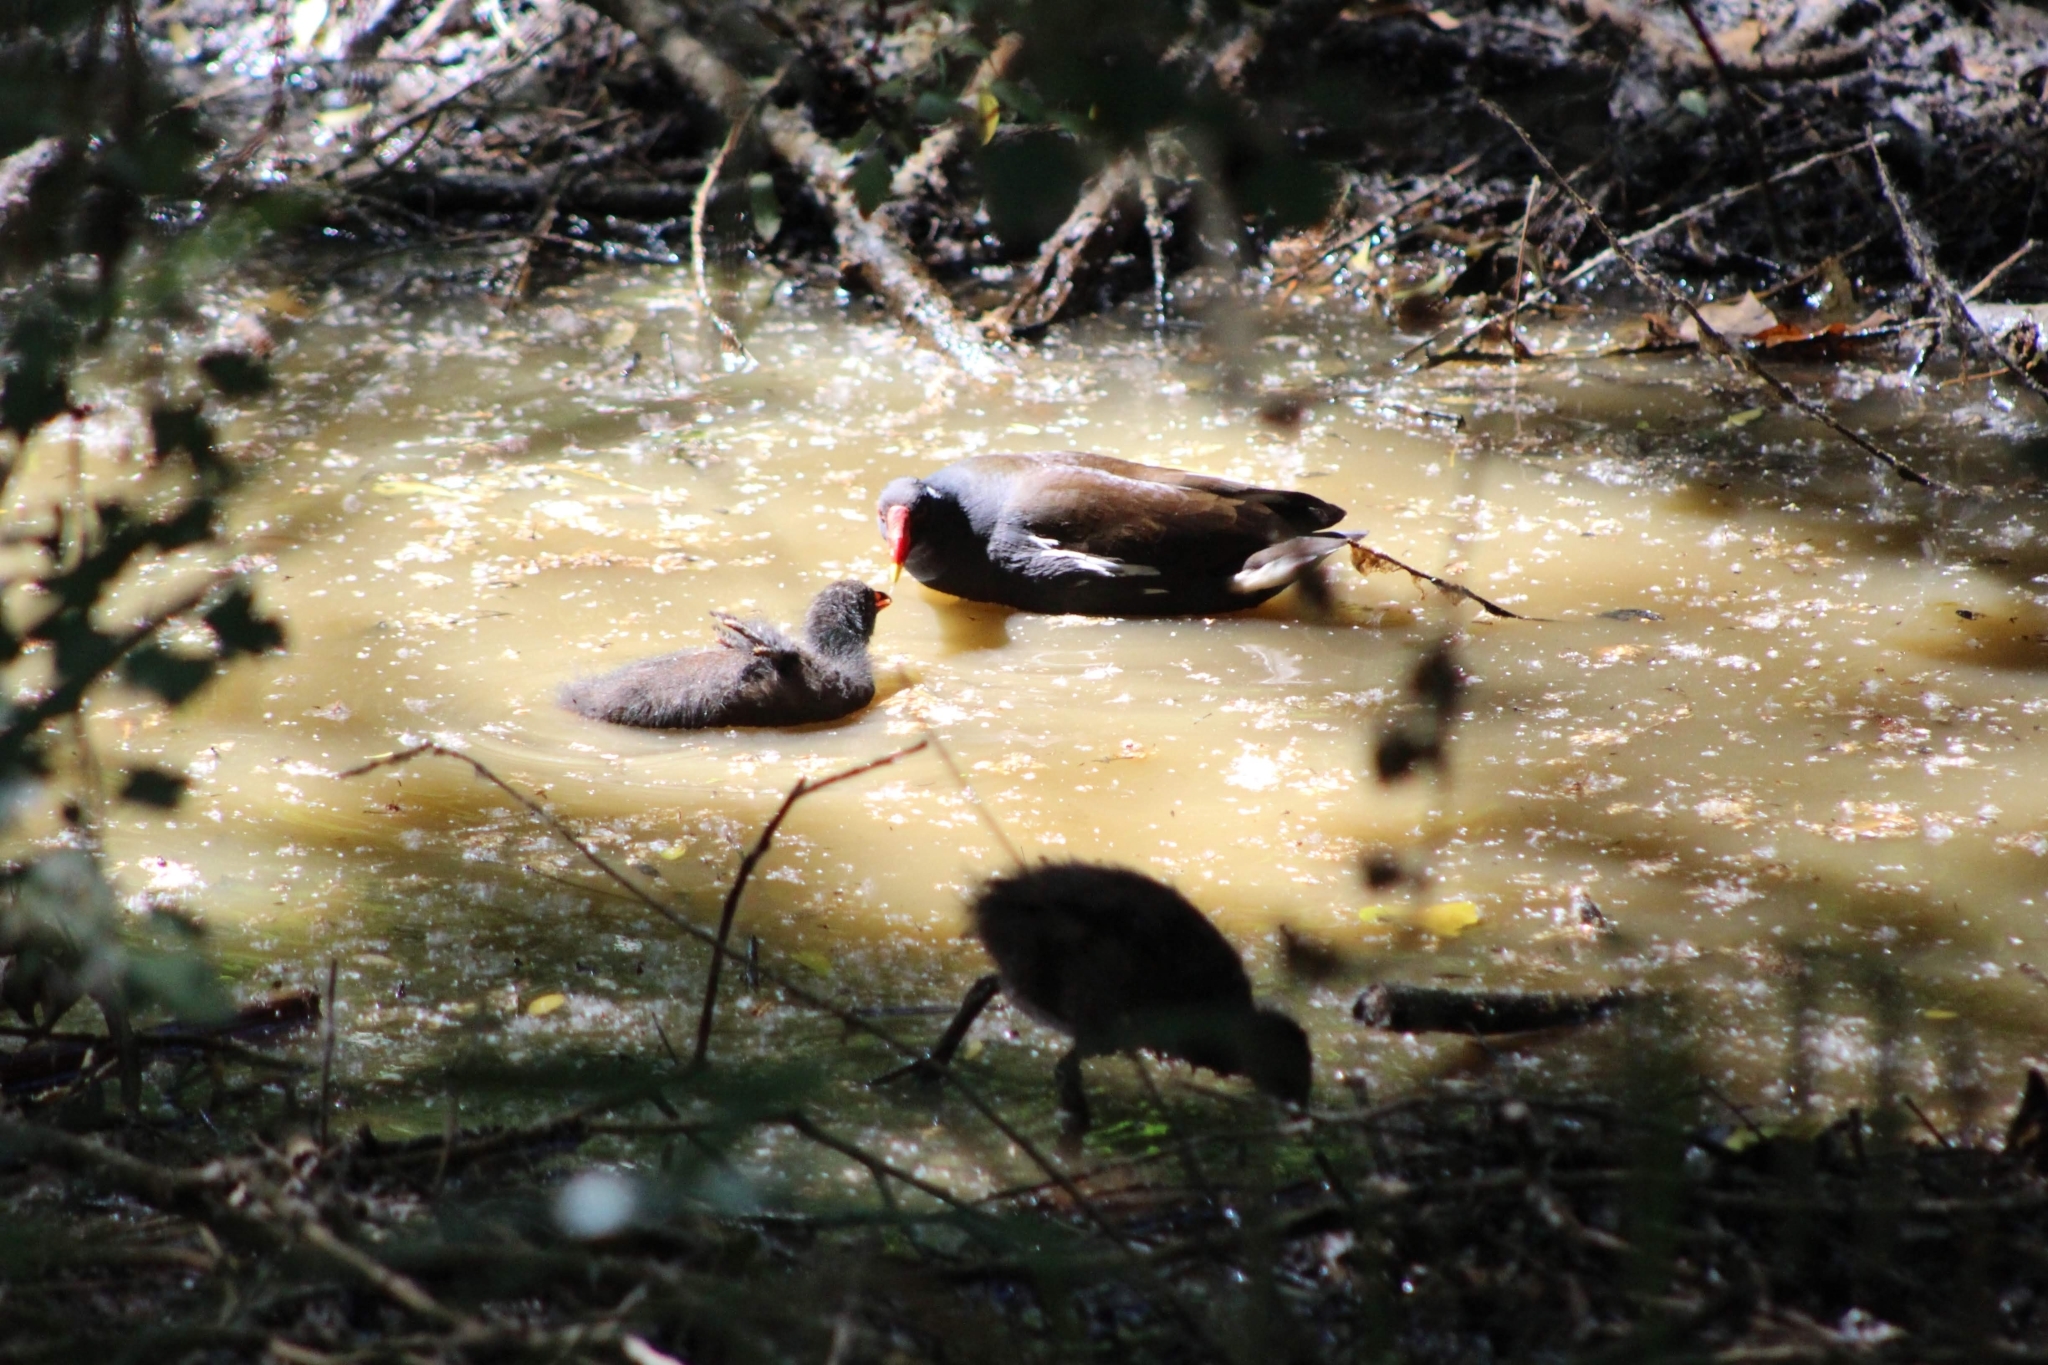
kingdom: Animalia
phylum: Chordata
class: Aves
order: Gruiformes
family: Rallidae
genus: Gallinula
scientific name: Gallinula chloropus
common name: Common moorhen
